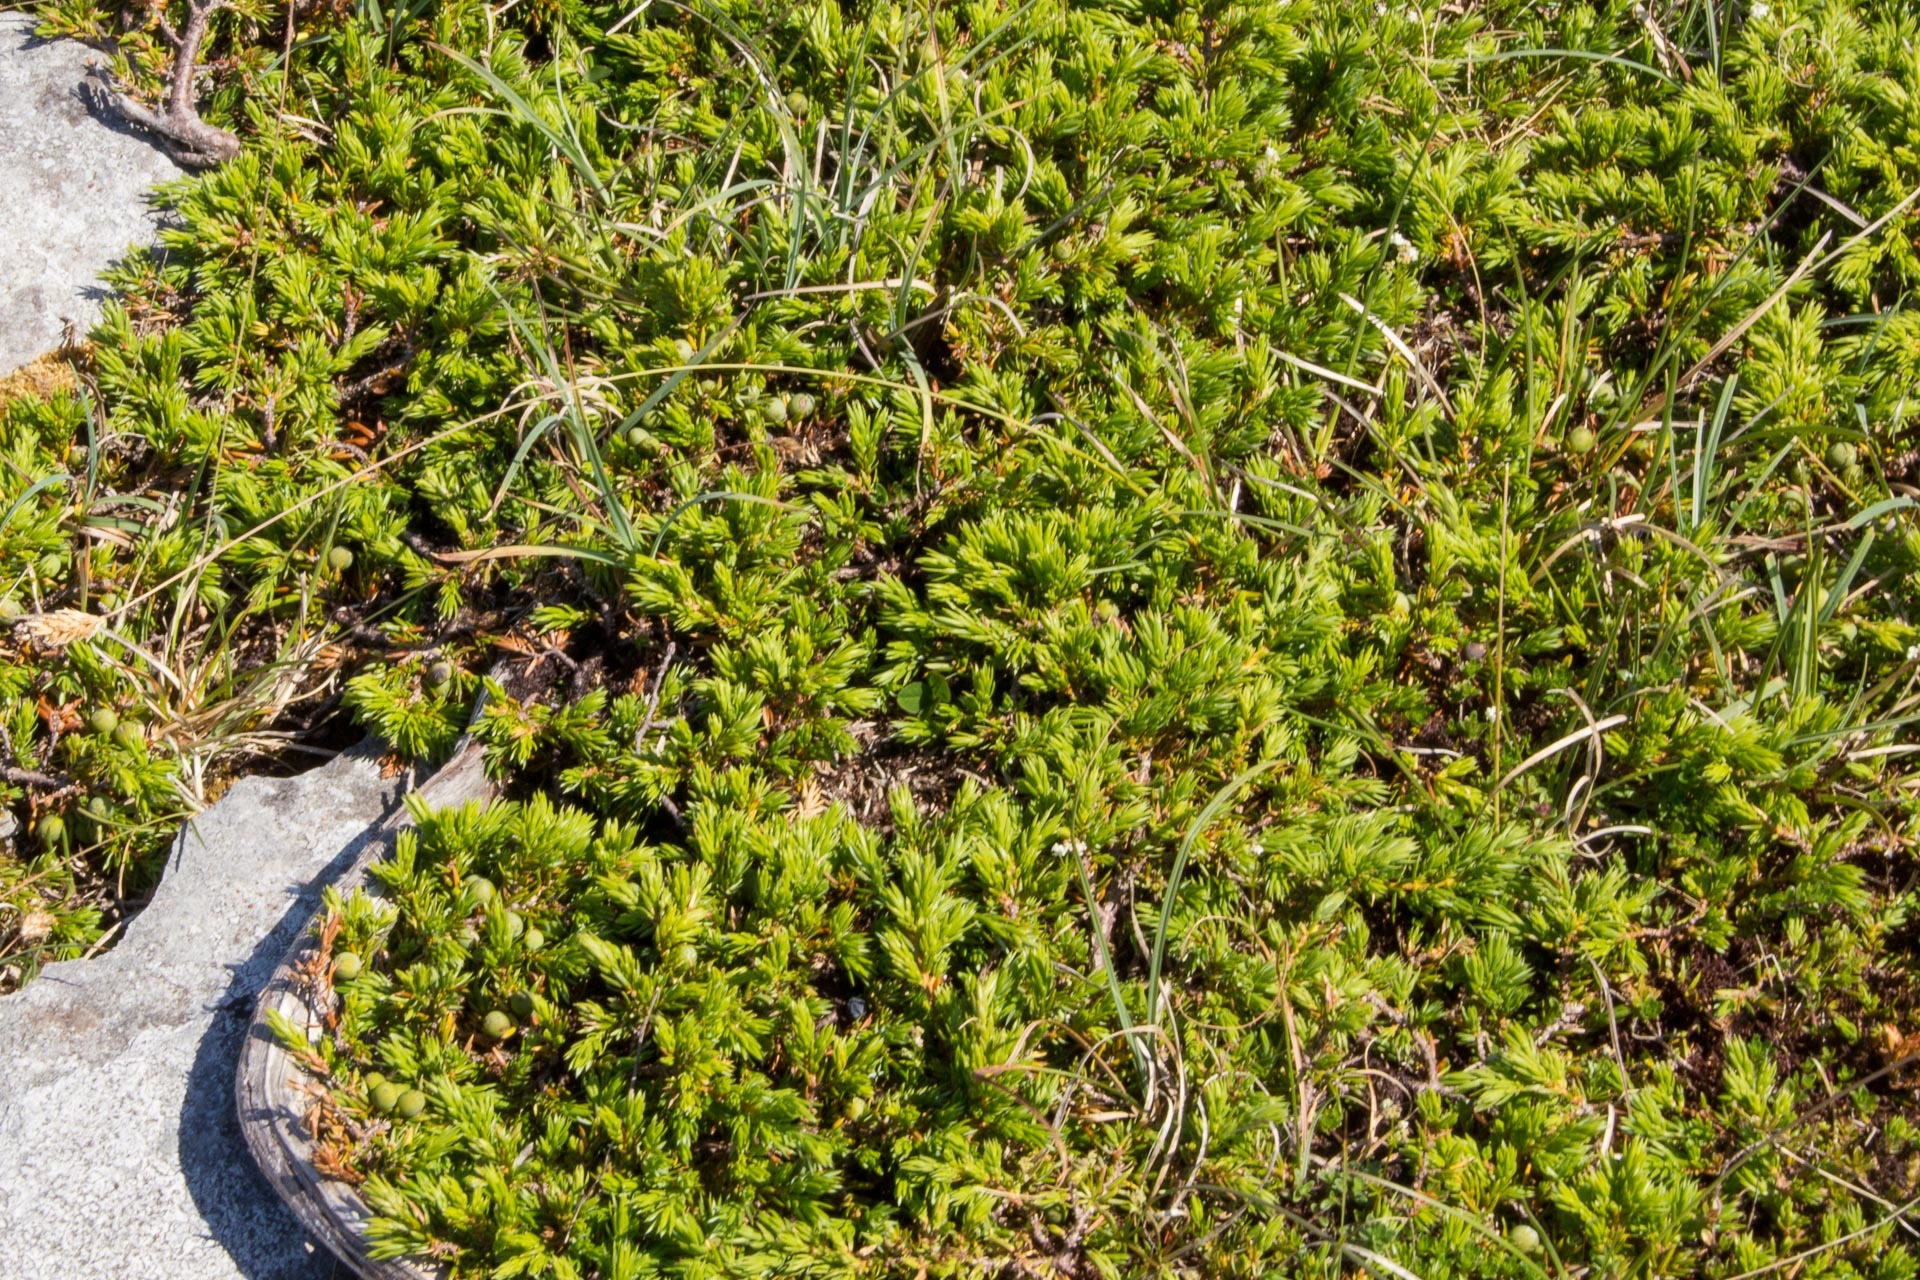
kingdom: Plantae
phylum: Tracheophyta
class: Pinopsida
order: Pinales
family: Cupressaceae
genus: Juniperus
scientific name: Juniperus communis
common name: Common juniper
